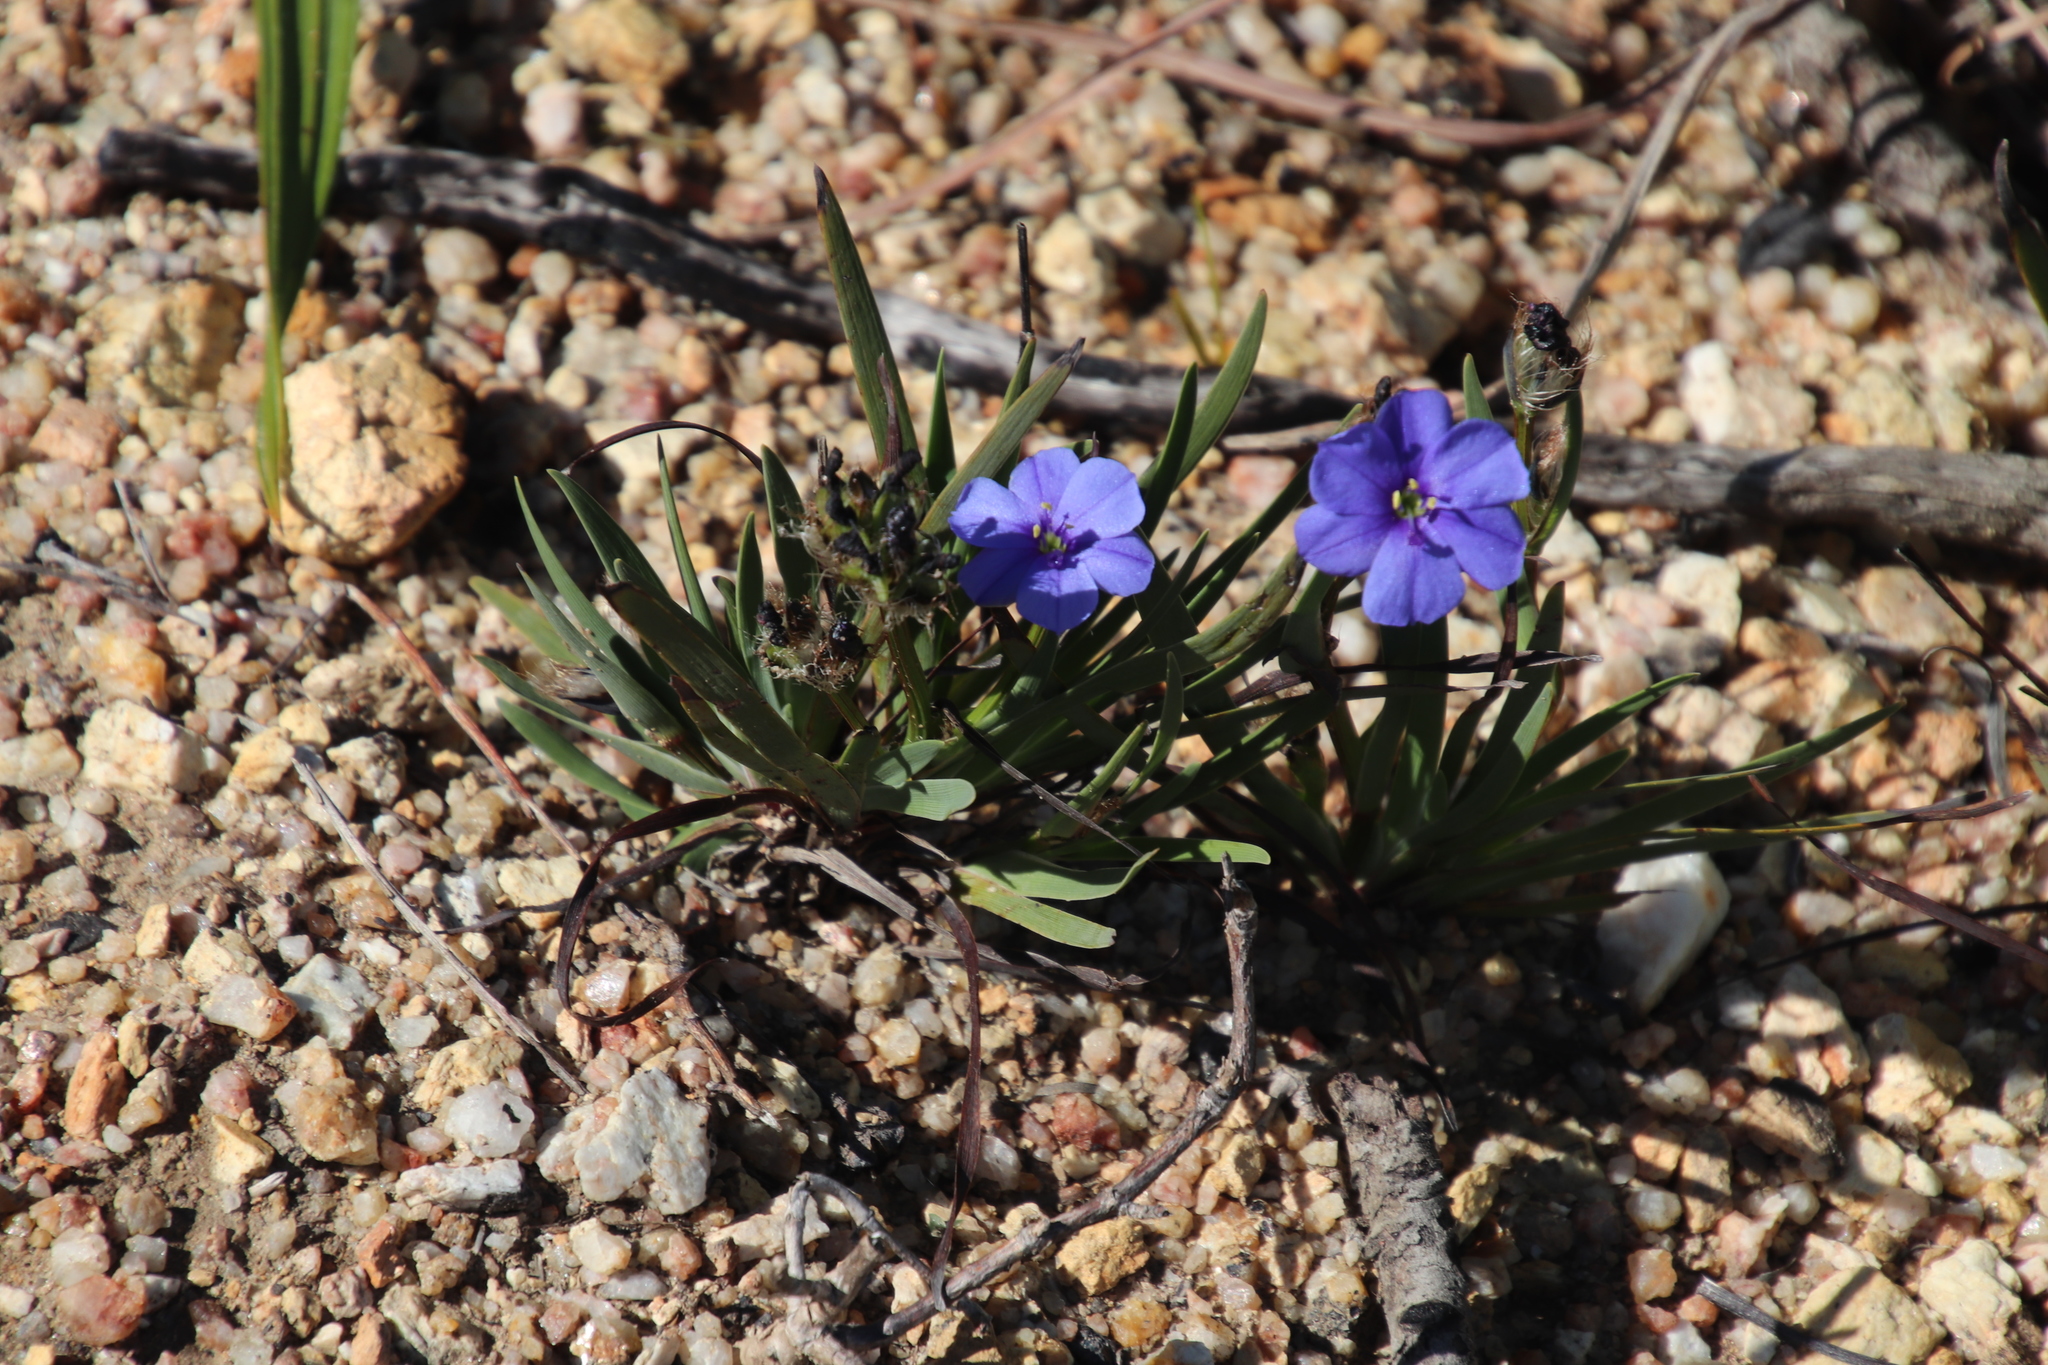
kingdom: Plantae
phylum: Tracheophyta
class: Liliopsida
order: Asparagales
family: Iridaceae
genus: Aristea
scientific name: Aristea africana
